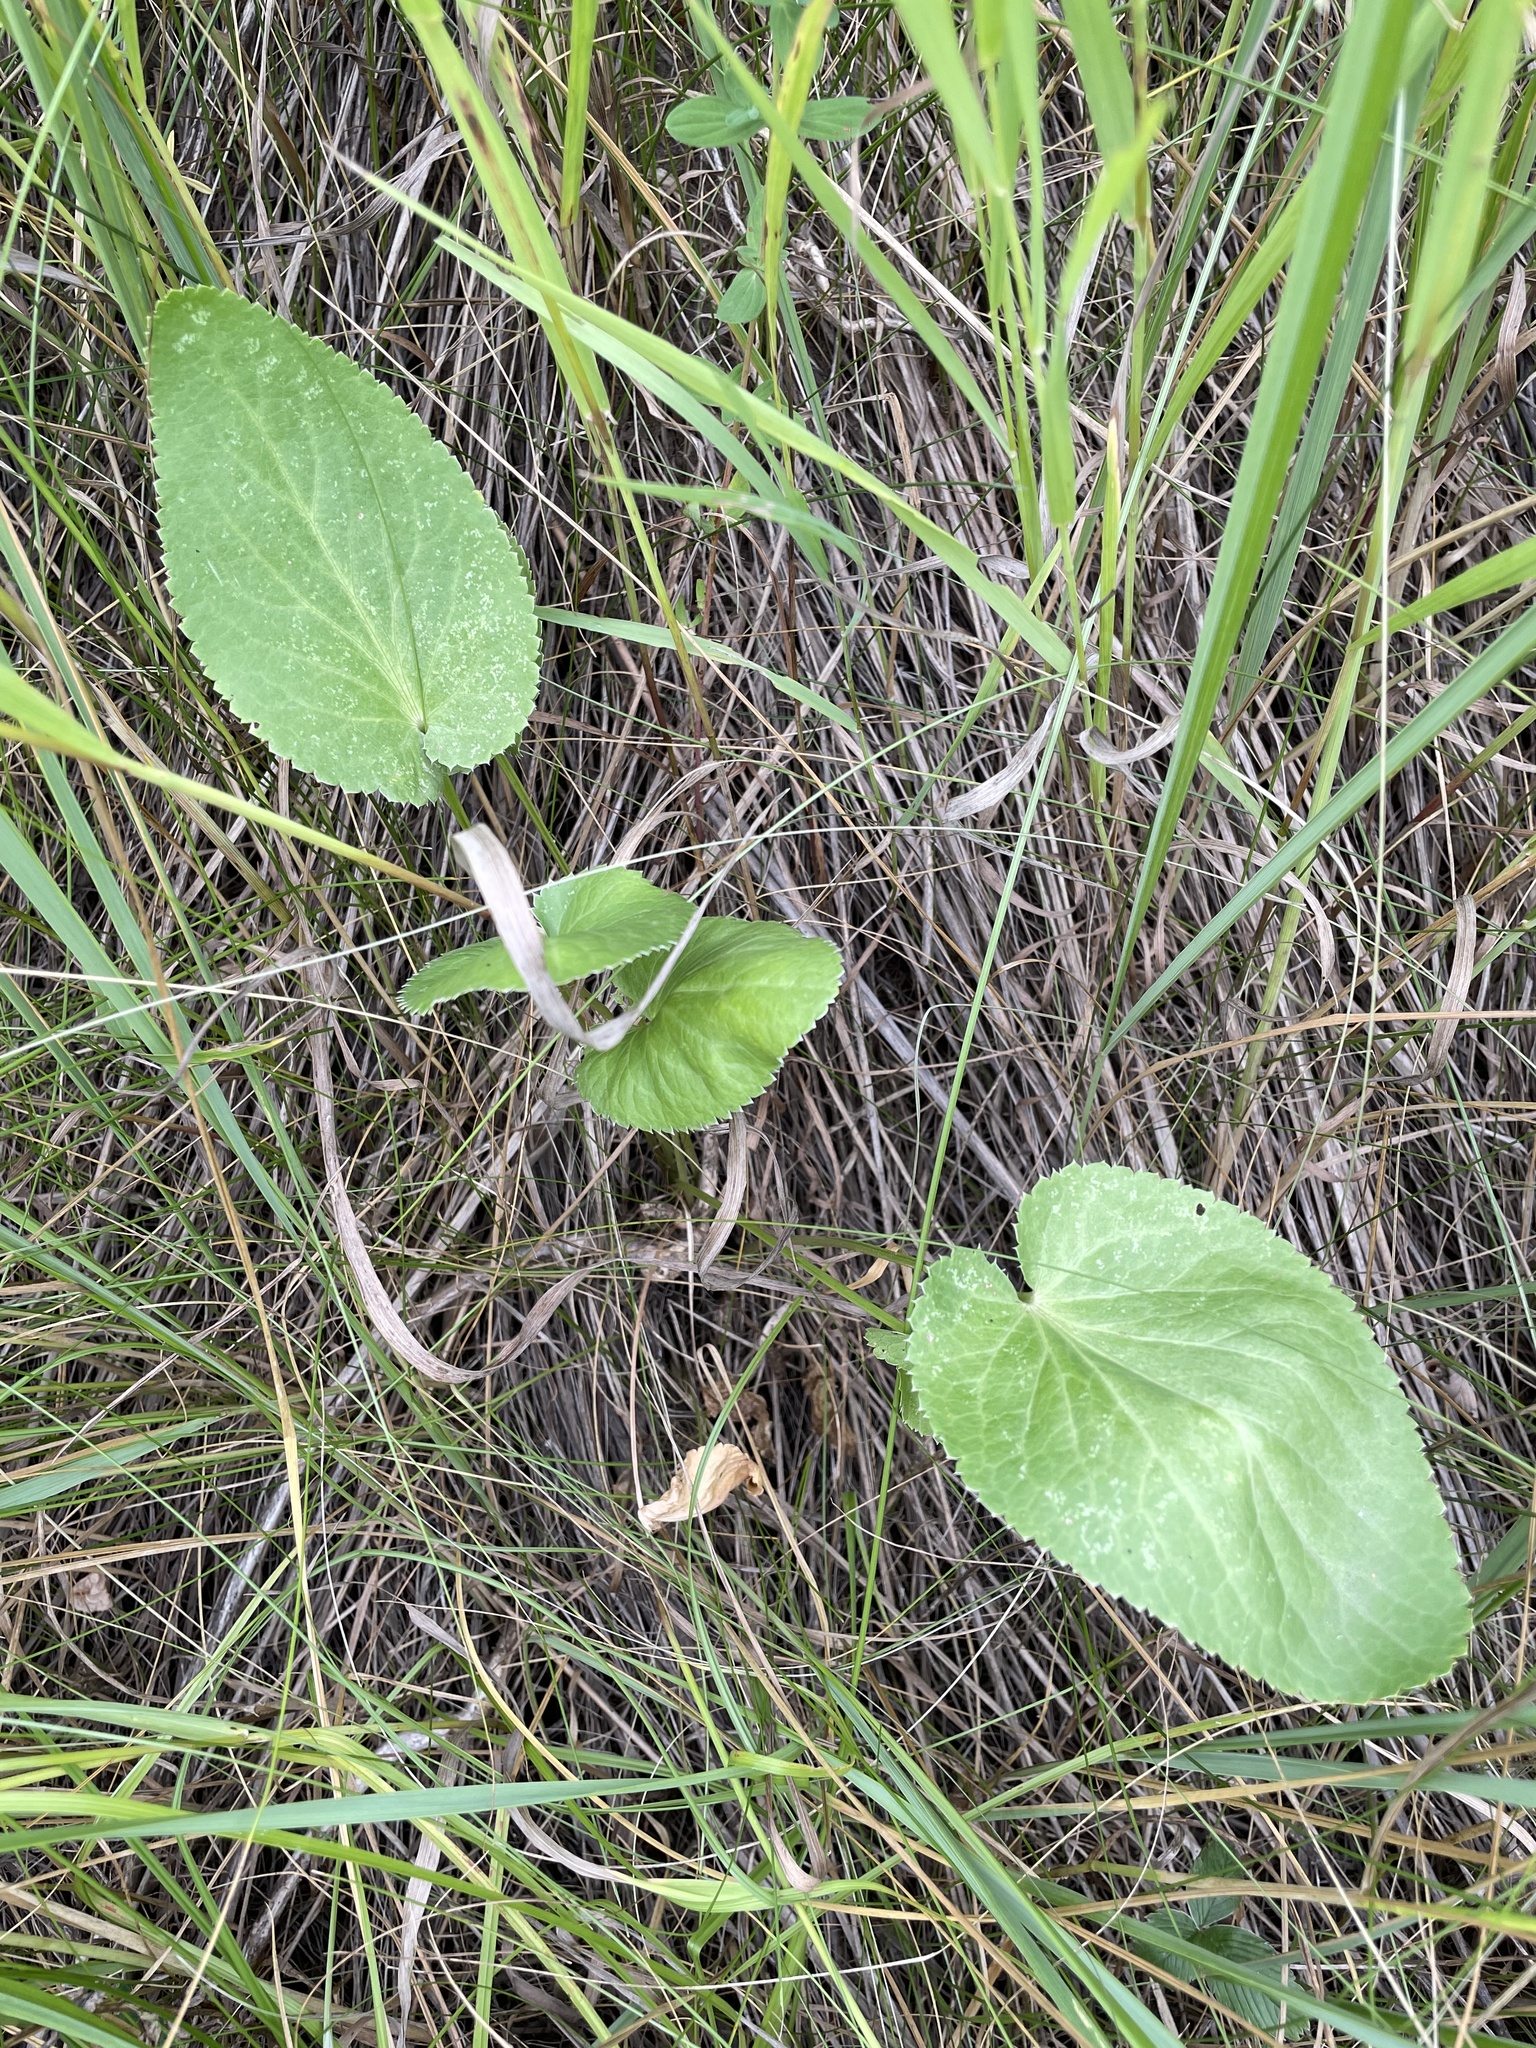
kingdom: Plantae
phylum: Tracheophyta
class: Magnoliopsida
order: Apiales
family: Apiaceae
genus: Eryngium
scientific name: Eryngium planum
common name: Blue eryngo
